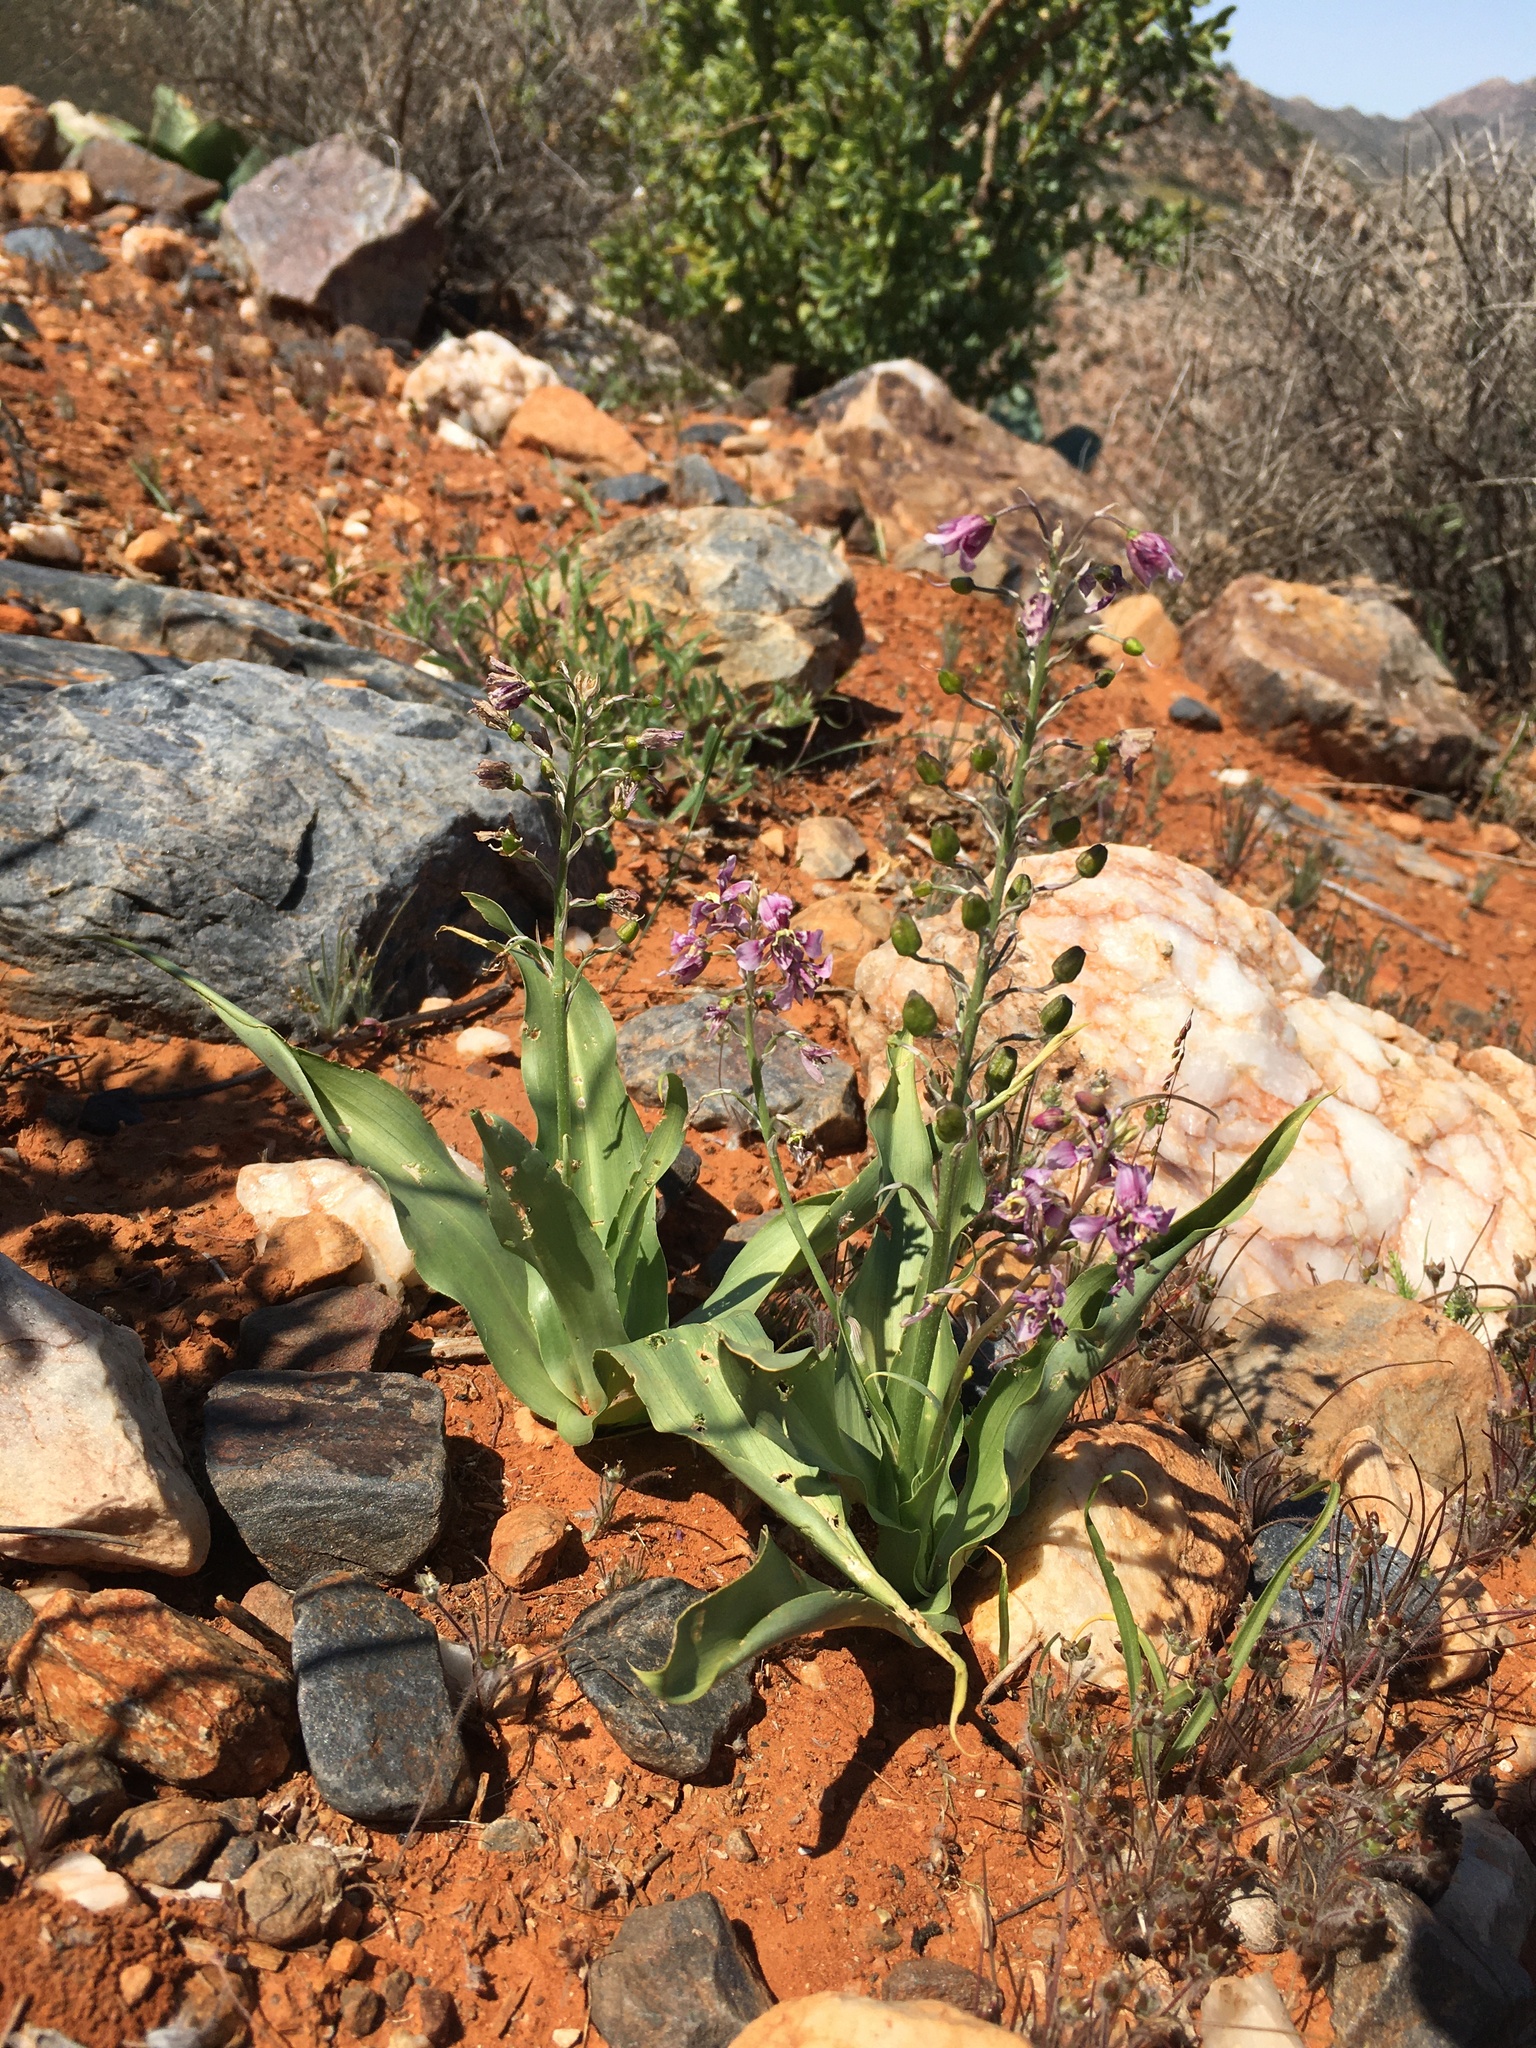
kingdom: Plantae
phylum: Tracheophyta
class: Liliopsida
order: Asparagales
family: Tecophilaeaceae
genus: Cyanella
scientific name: Cyanella orchidiformis
